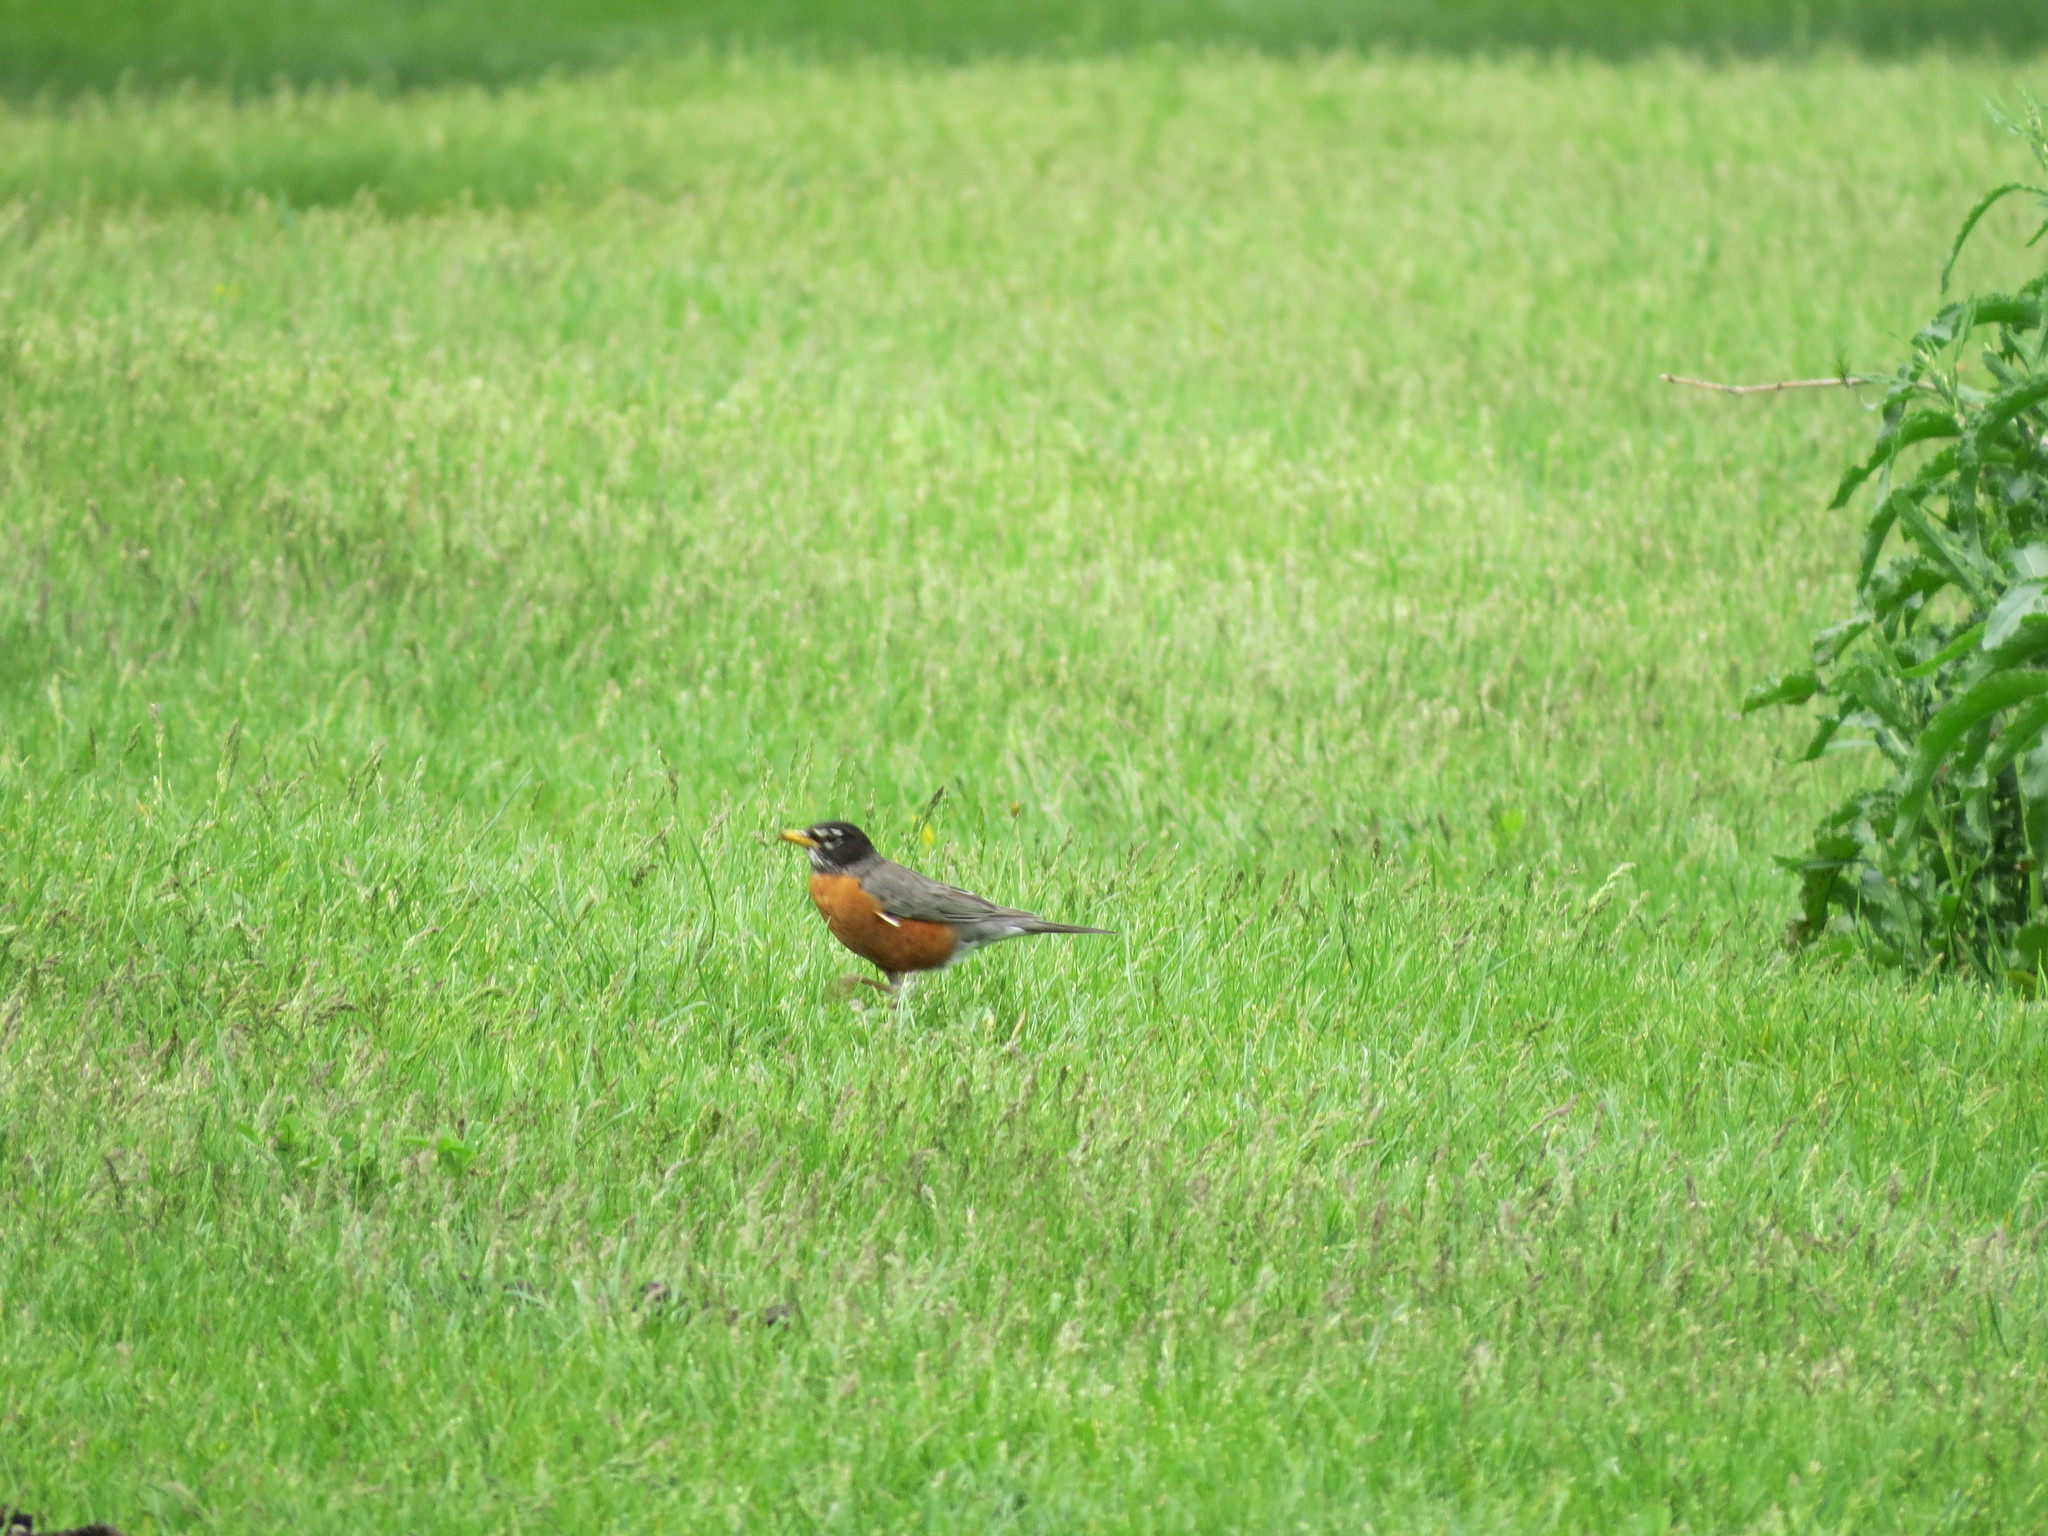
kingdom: Animalia
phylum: Chordata
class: Aves
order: Passeriformes
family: Turdidae
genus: Turdus
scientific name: Turdus migratorius
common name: American robin
